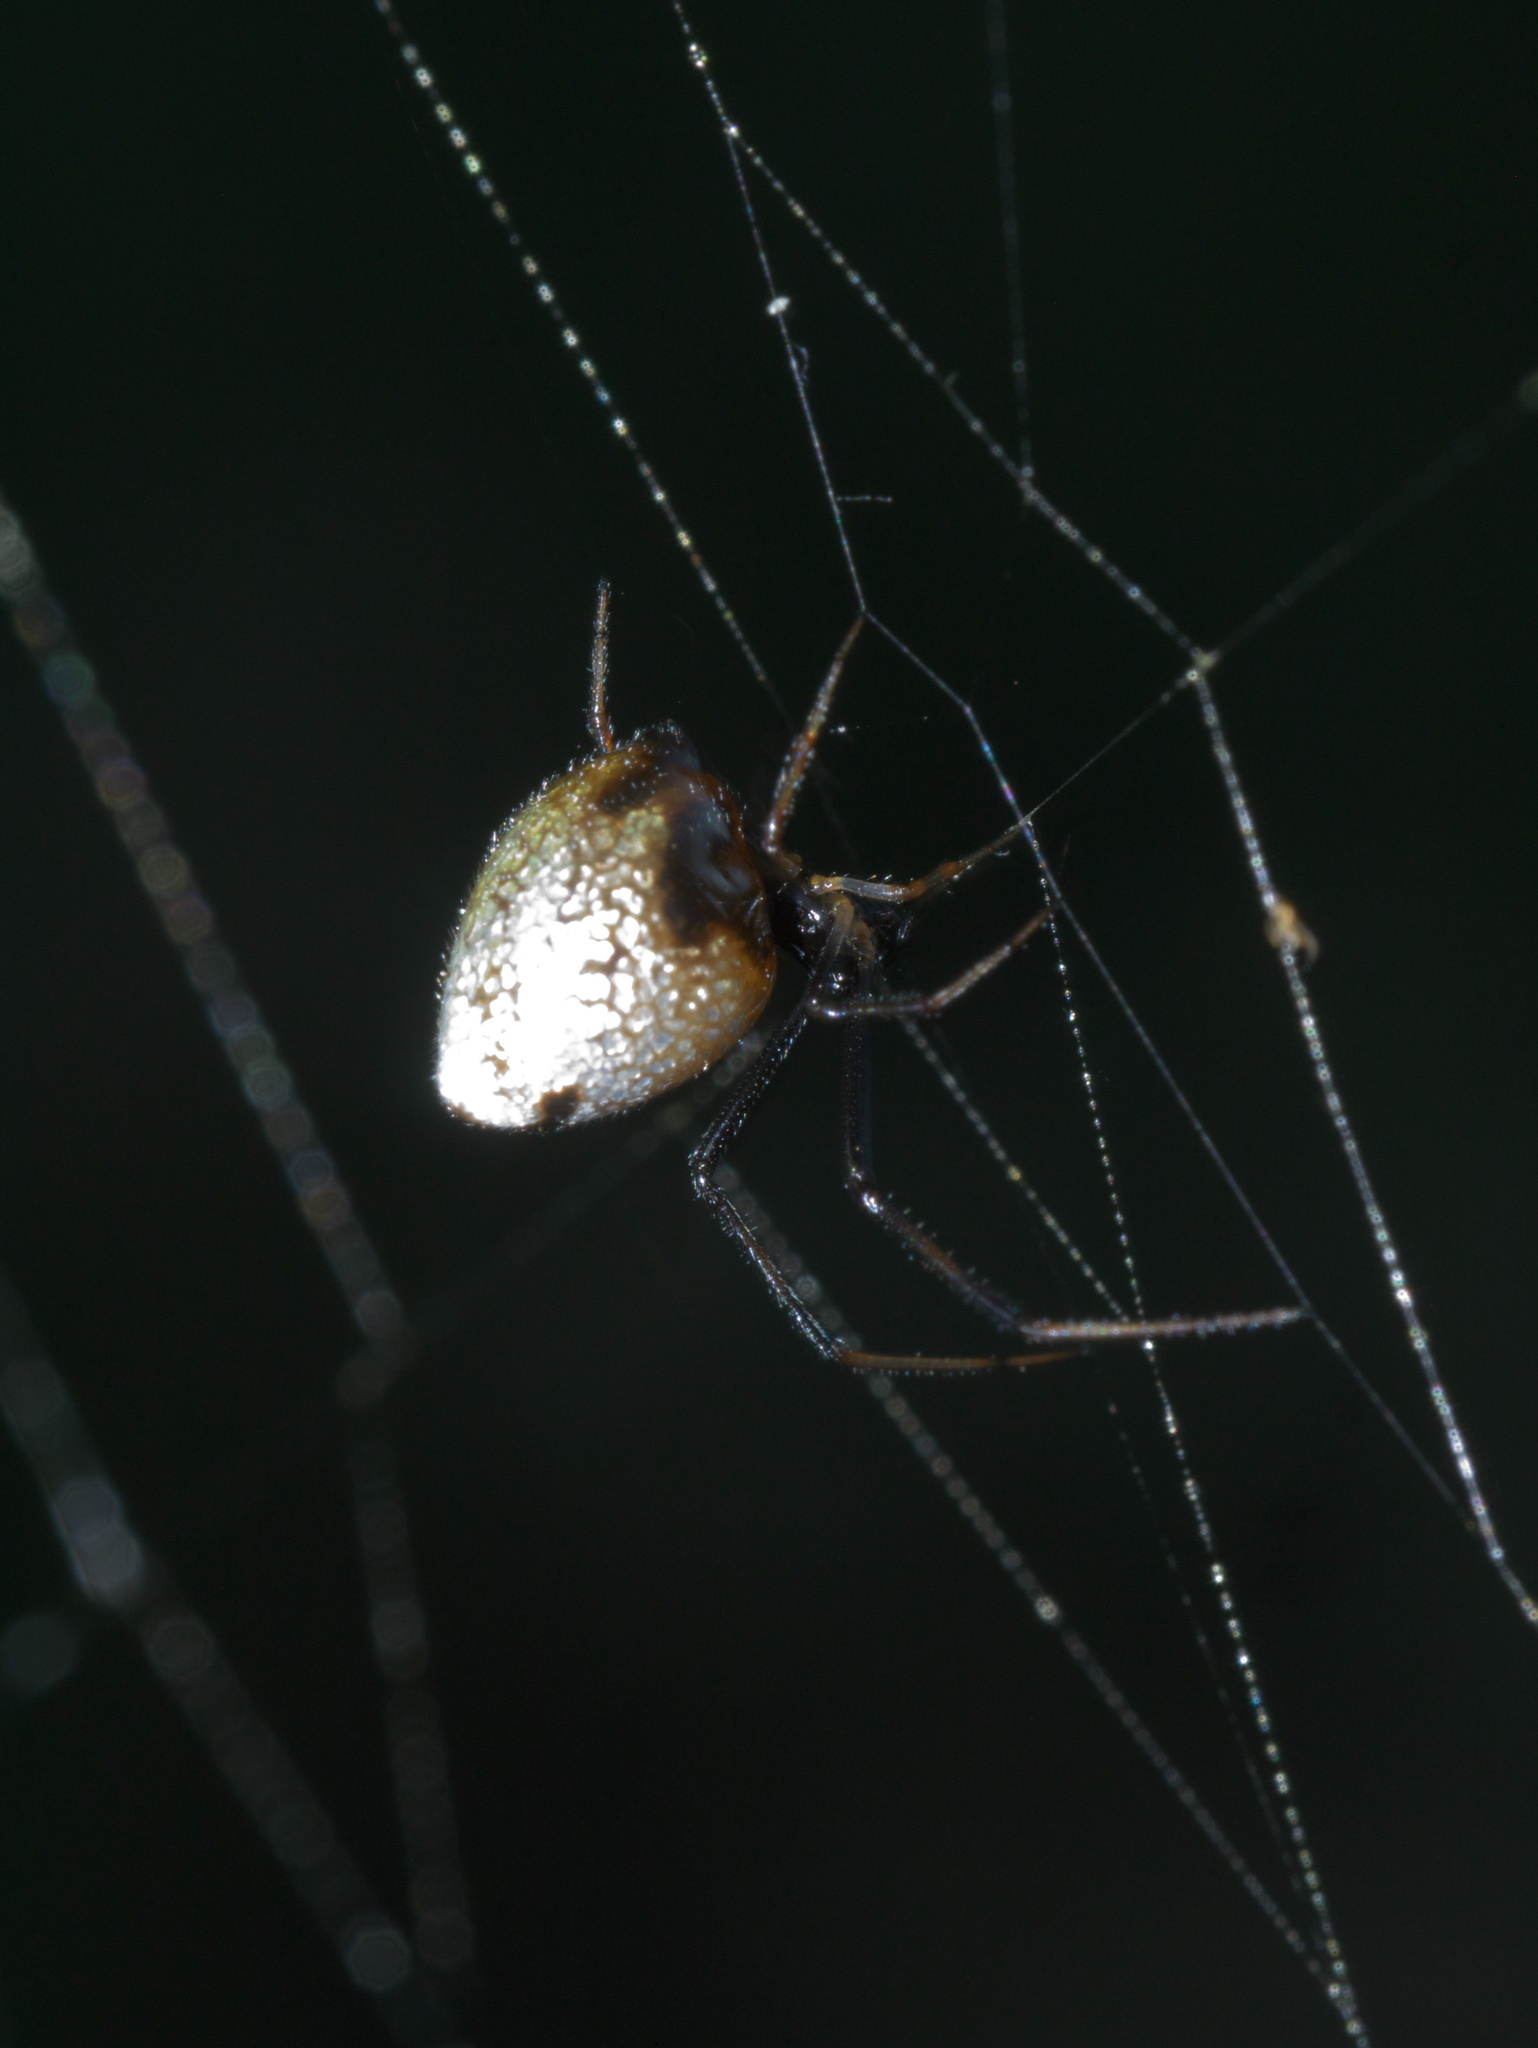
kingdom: Animalia
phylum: Arthropoda
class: Arachnida
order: Araneae
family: Theridiidae
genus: Argyrodes
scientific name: Argyrodes elevatus
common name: Cobweb spiders
